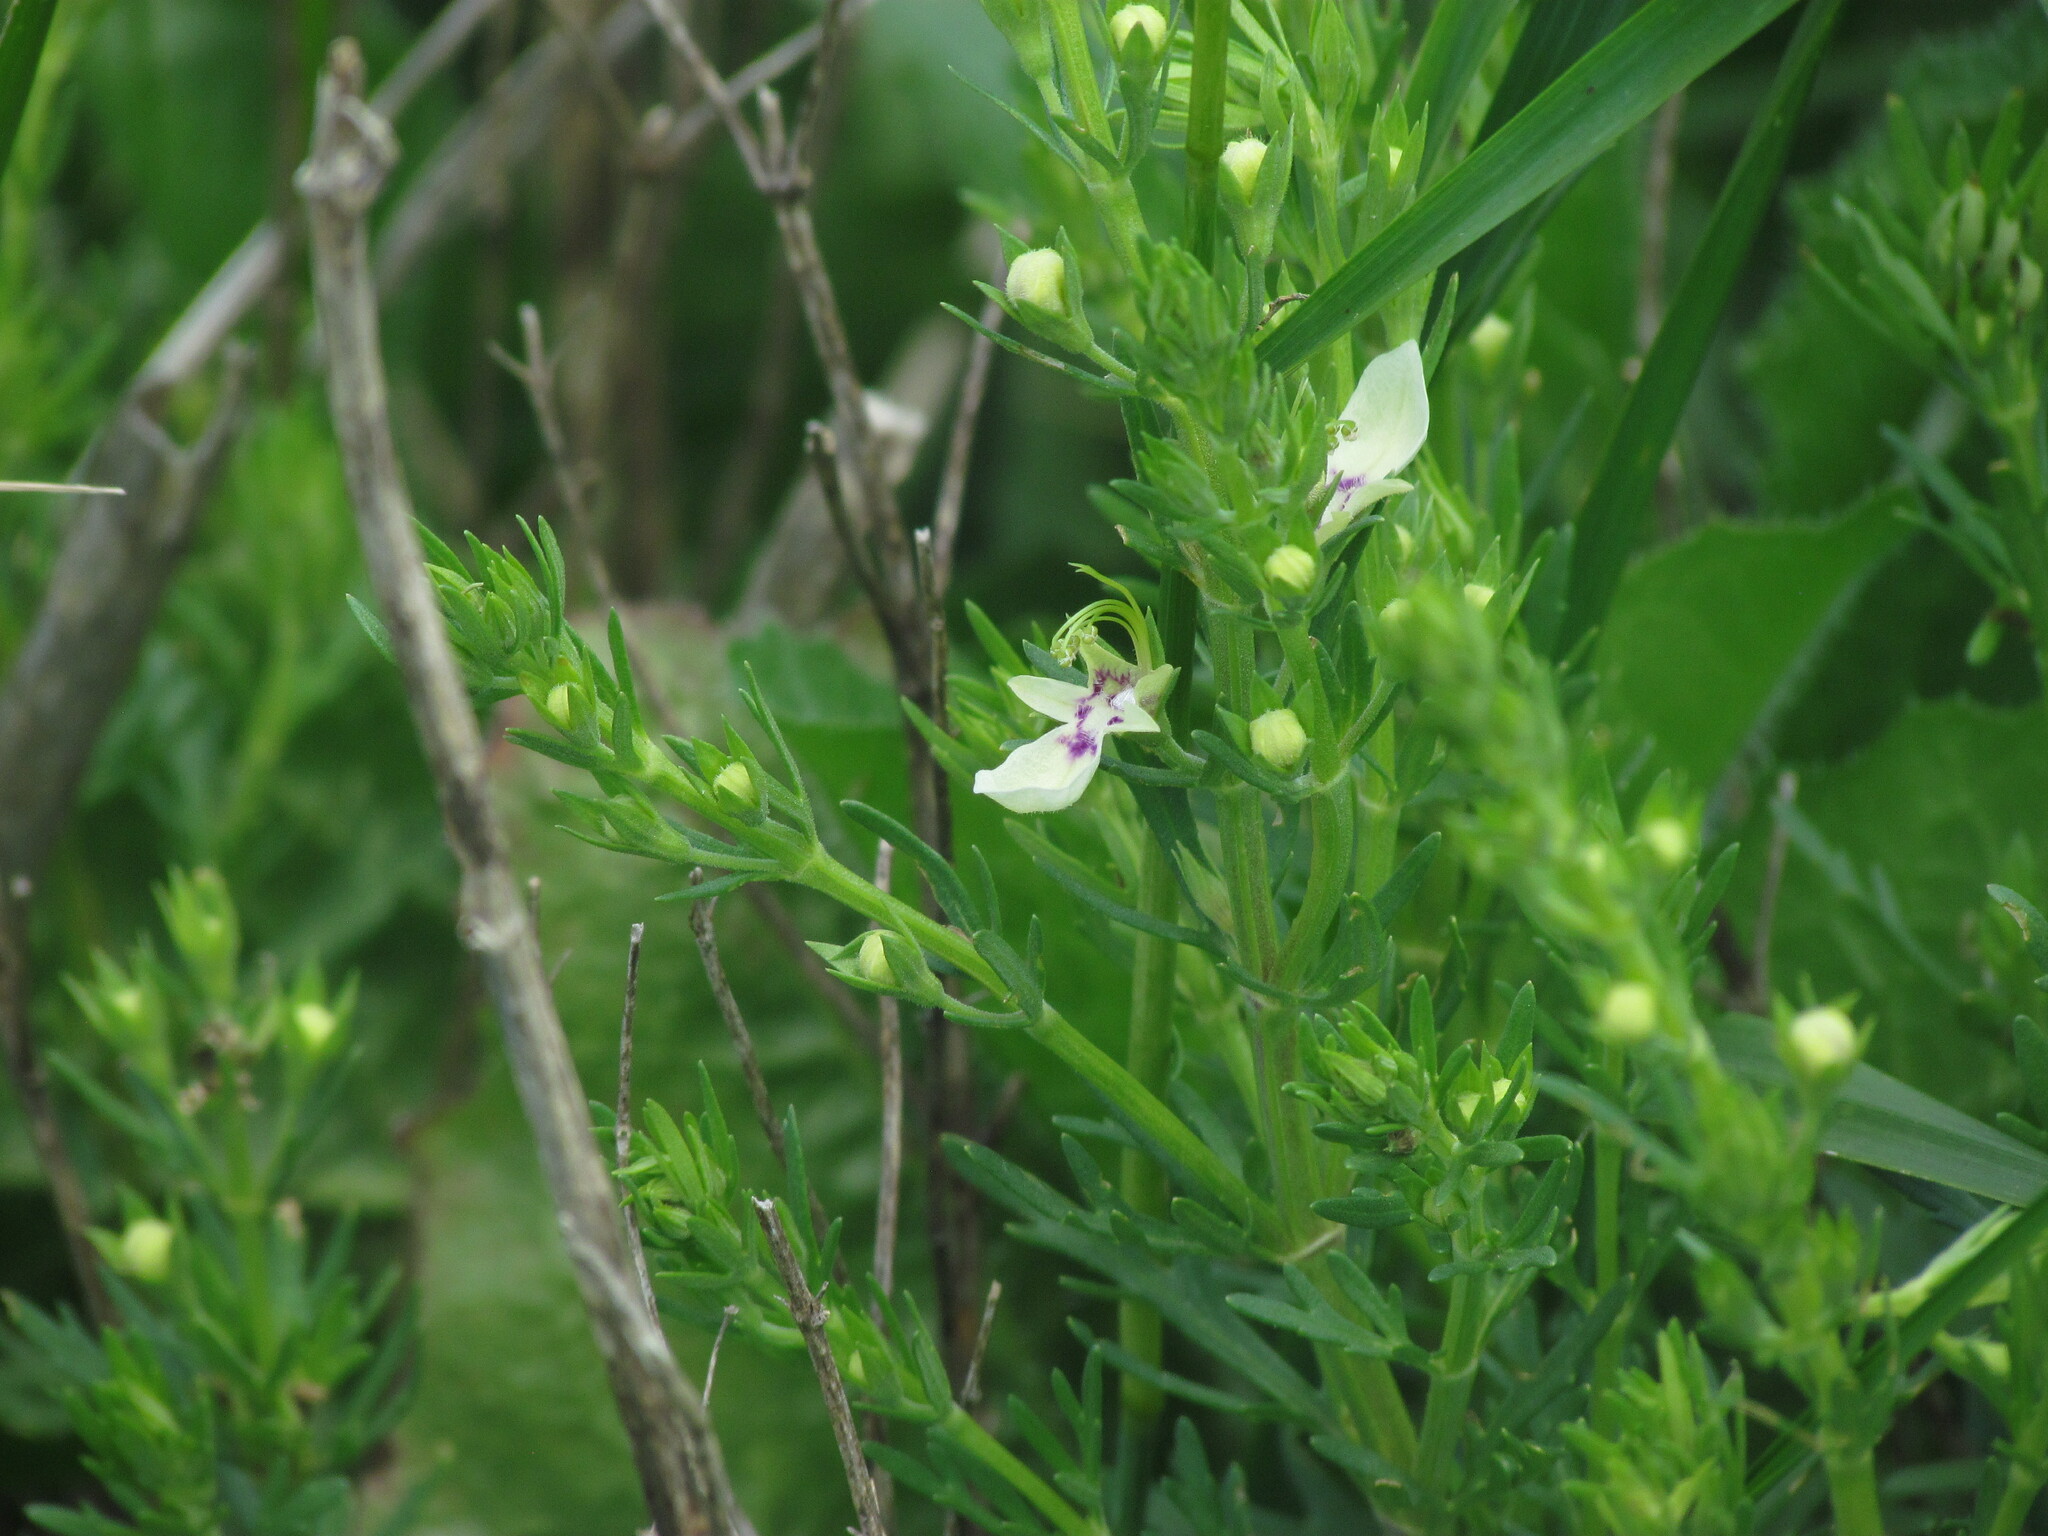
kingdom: Plantae
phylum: Tracheophyta
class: Magnoliopsida
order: Lamiales
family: Lamiaceae
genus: Teucrium
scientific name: Teucrium cubense
